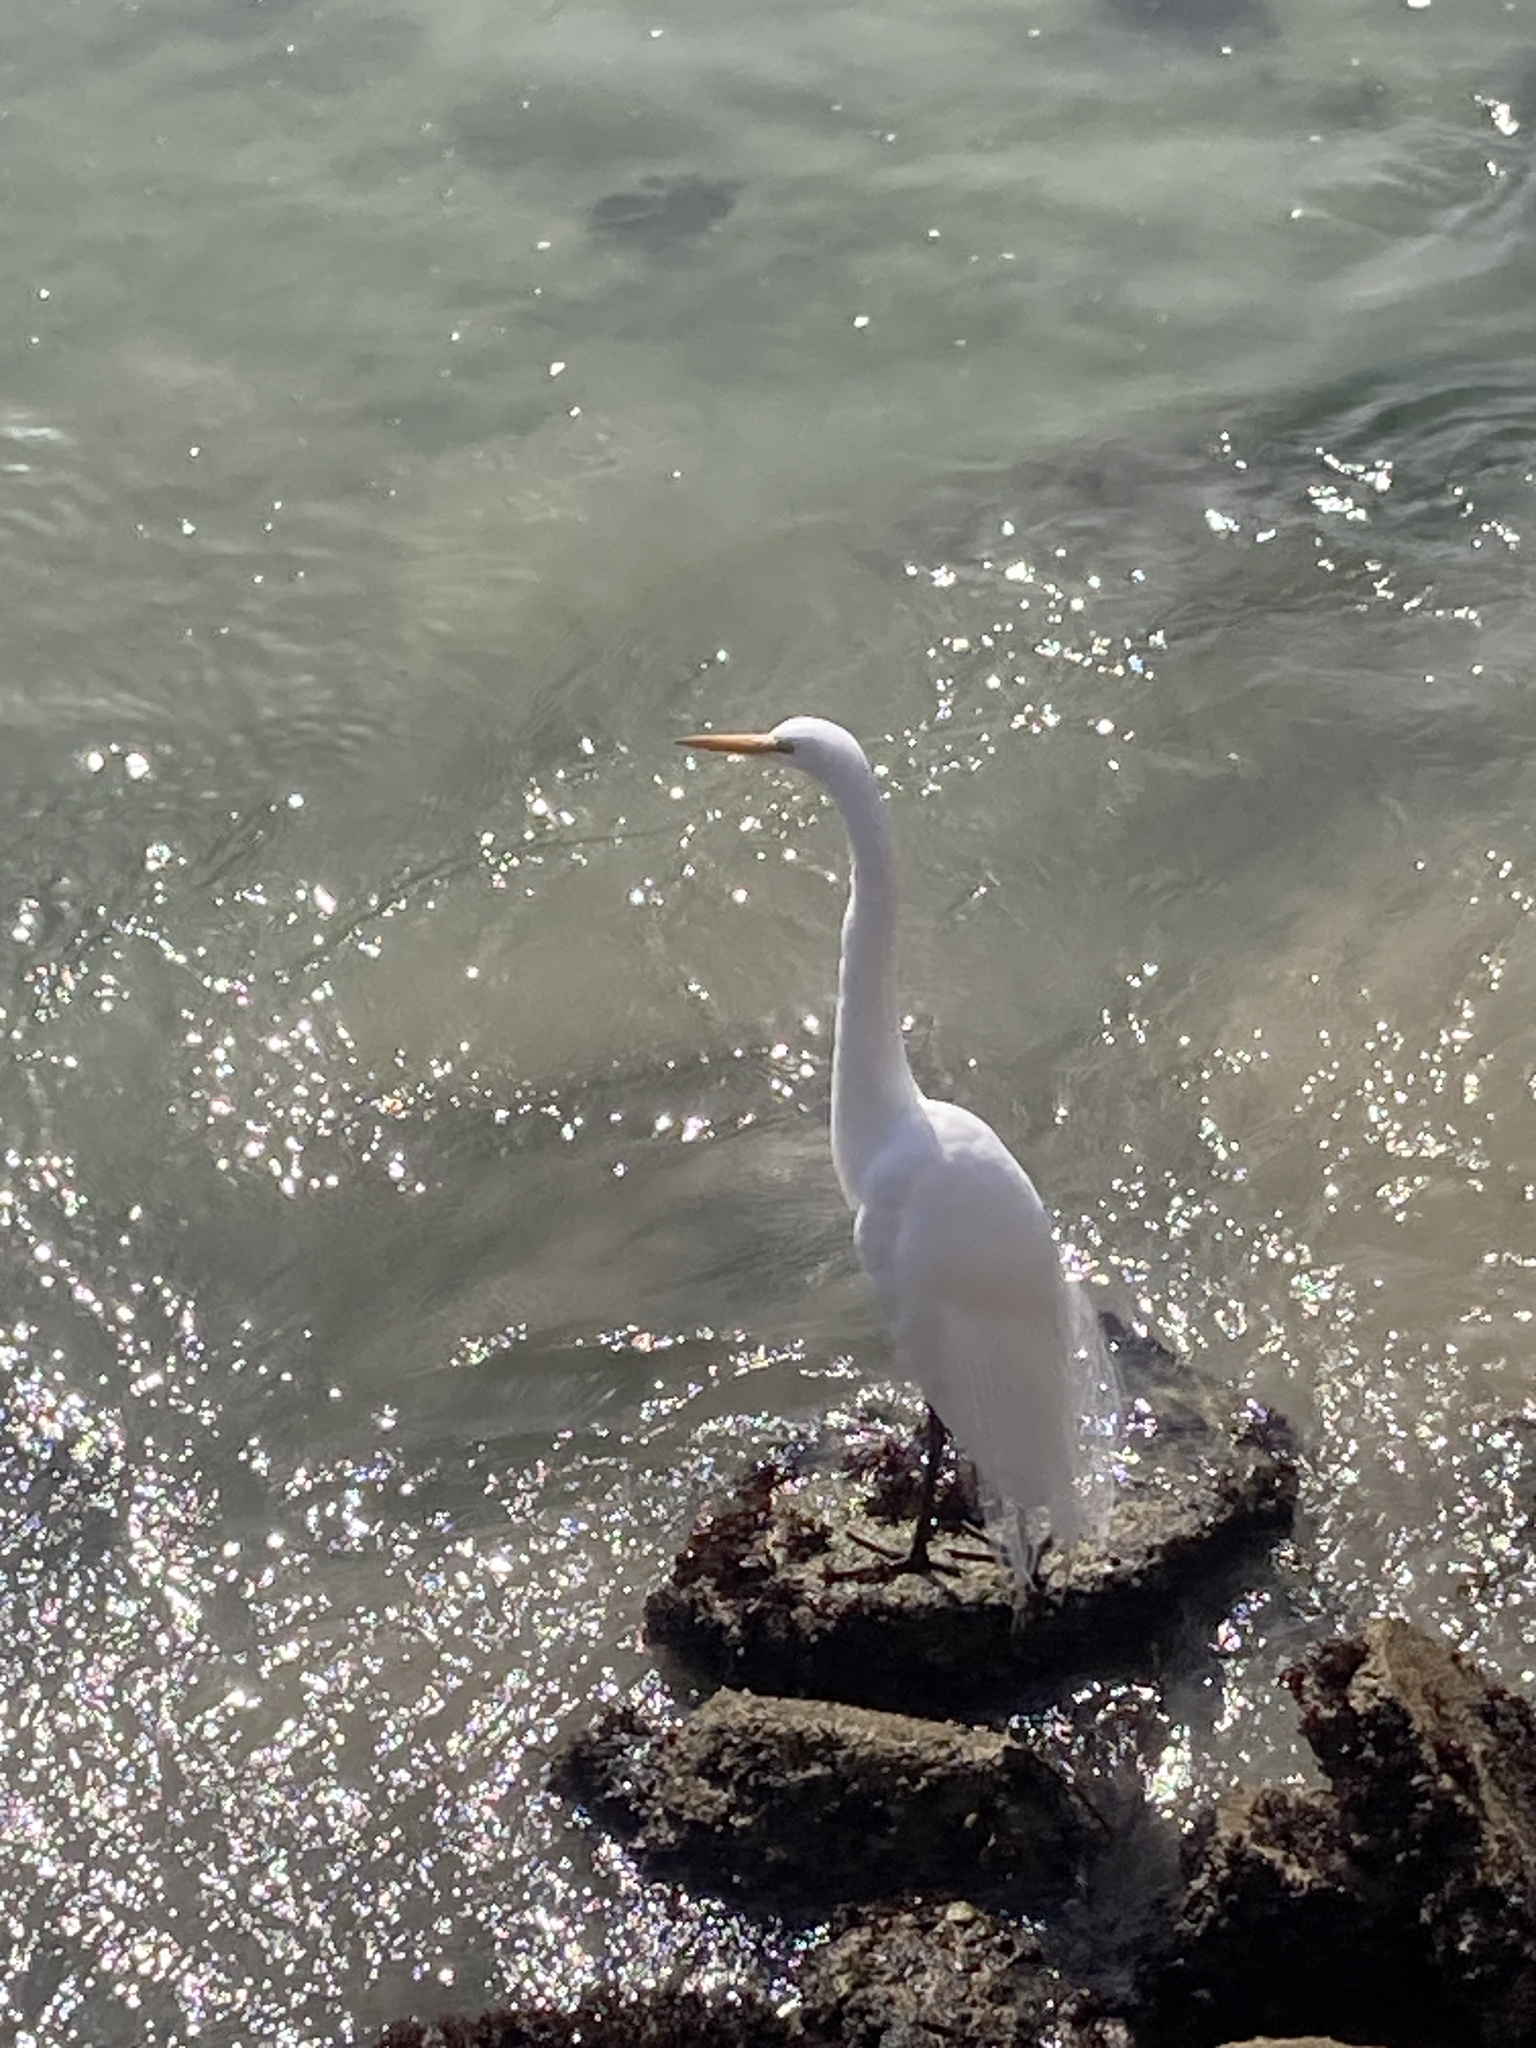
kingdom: Animalia
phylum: Chordata
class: Aves
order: Pelecaniformes
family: Ardeidae
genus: Ardea
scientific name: Ardea alba
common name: Great egret
